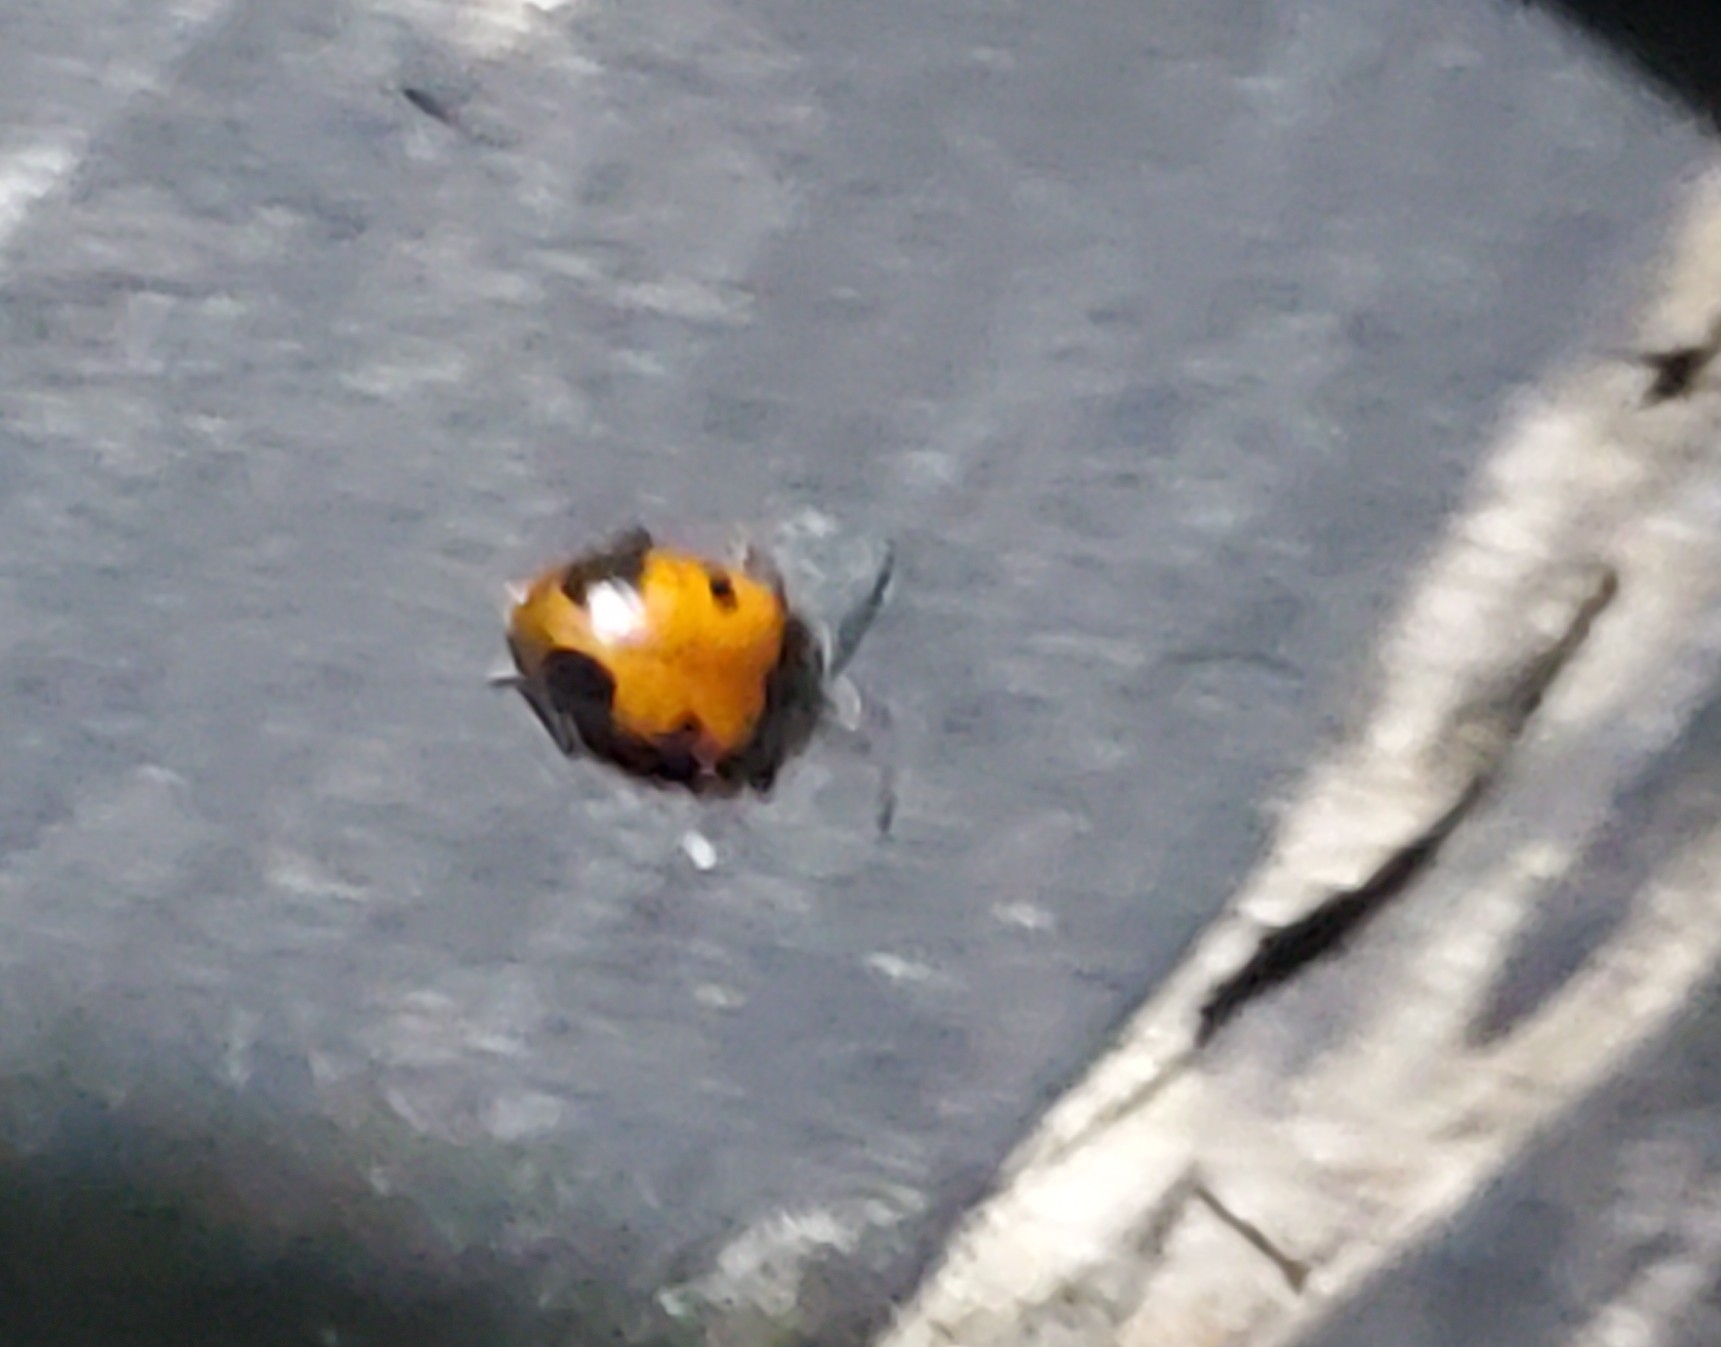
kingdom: Animalia
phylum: Arthropoda
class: Insecta
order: Coleoptera
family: Endomychidae
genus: Endomychus
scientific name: Endomychus biguttatus
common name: Handsome fungus beetle
